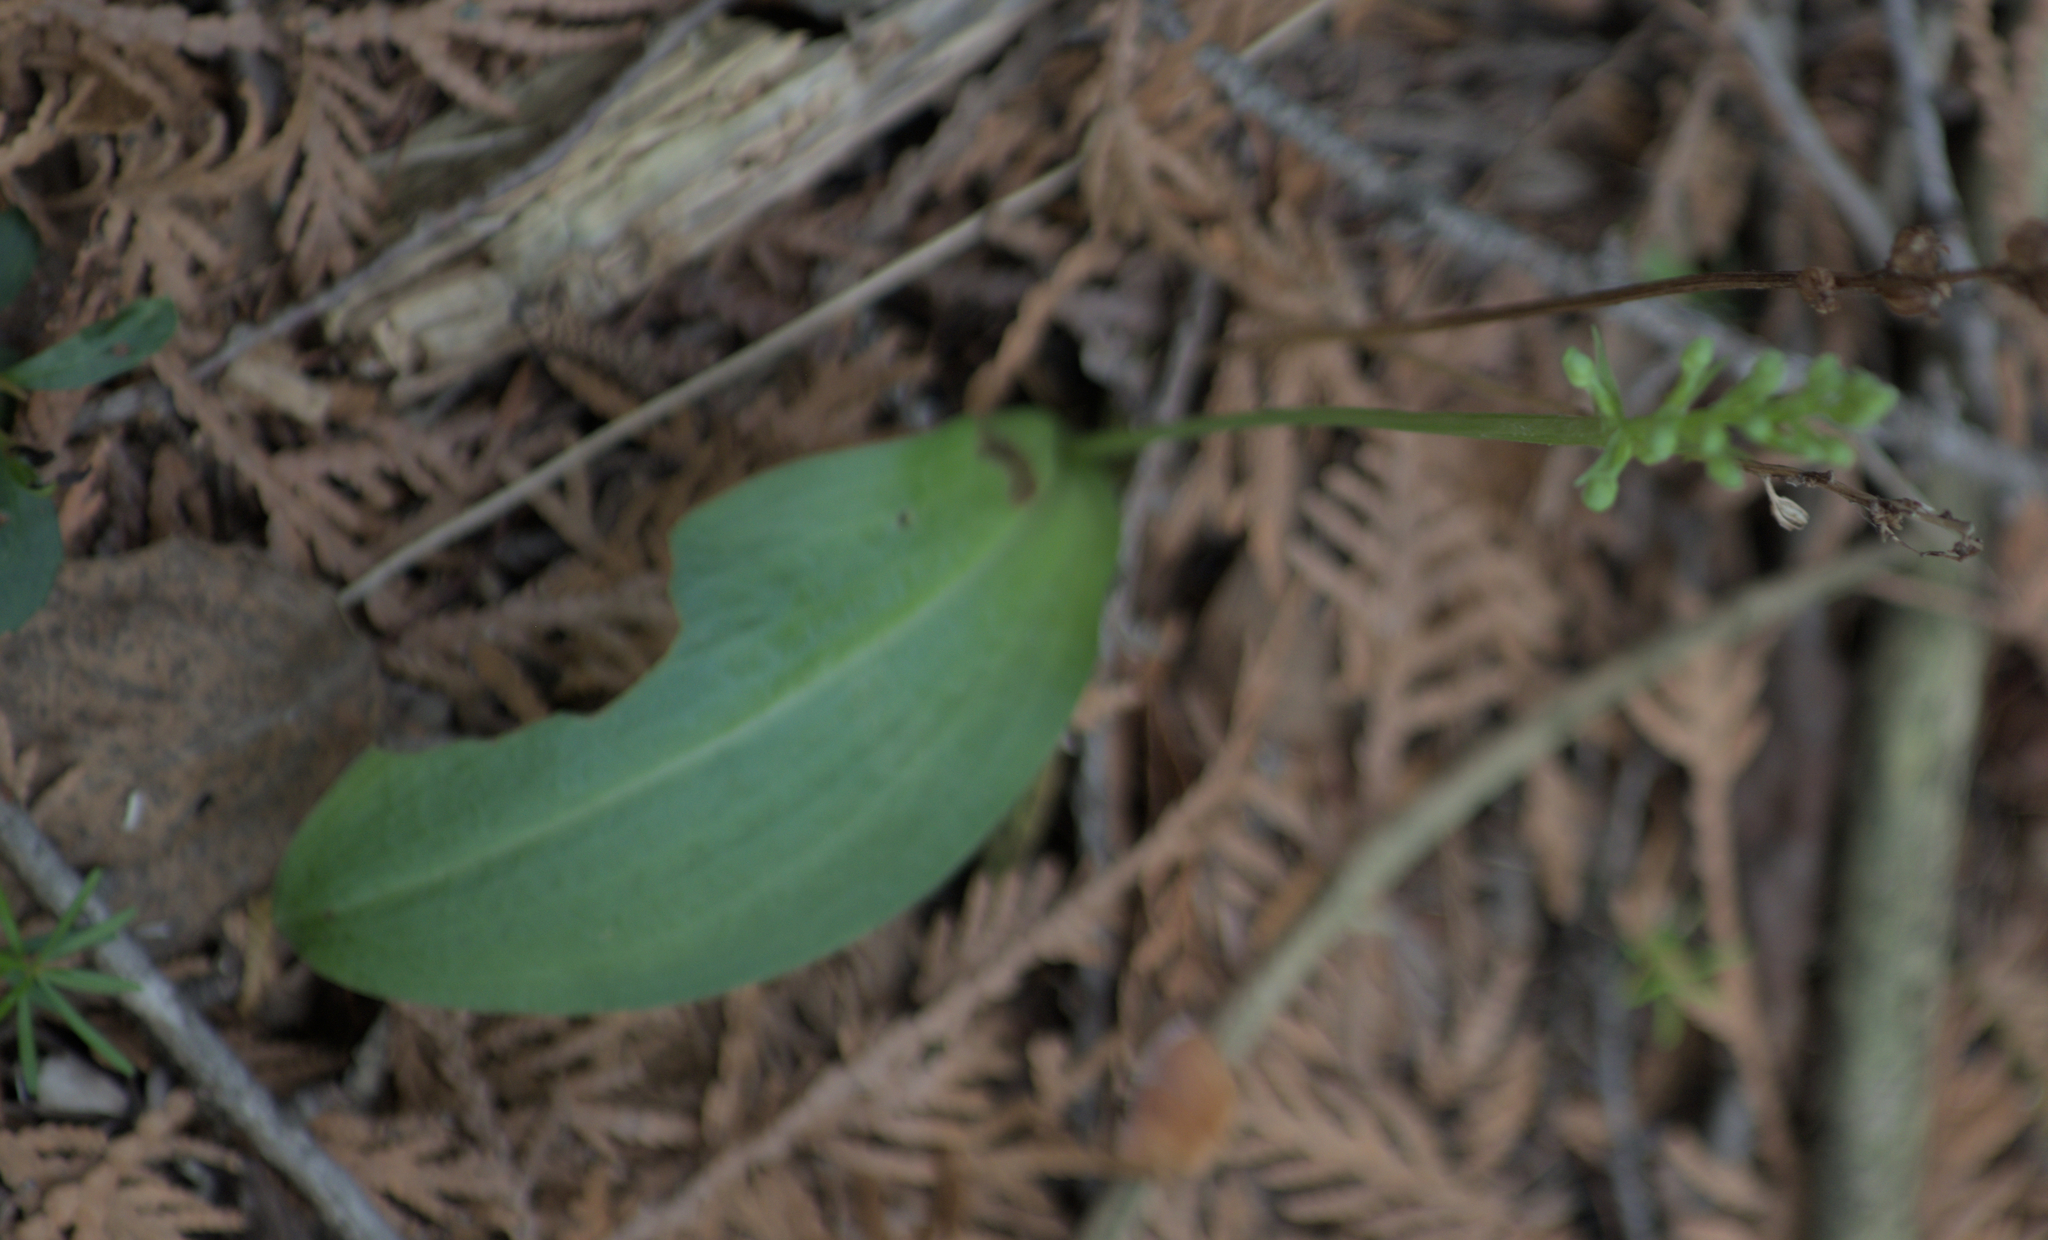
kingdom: Plantae
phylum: Tracheophyta
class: Liliopsida
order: Asparagales
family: Orchidaceae
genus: Platanthera
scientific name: Platanthera obtusata
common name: Blunt bog orchid
